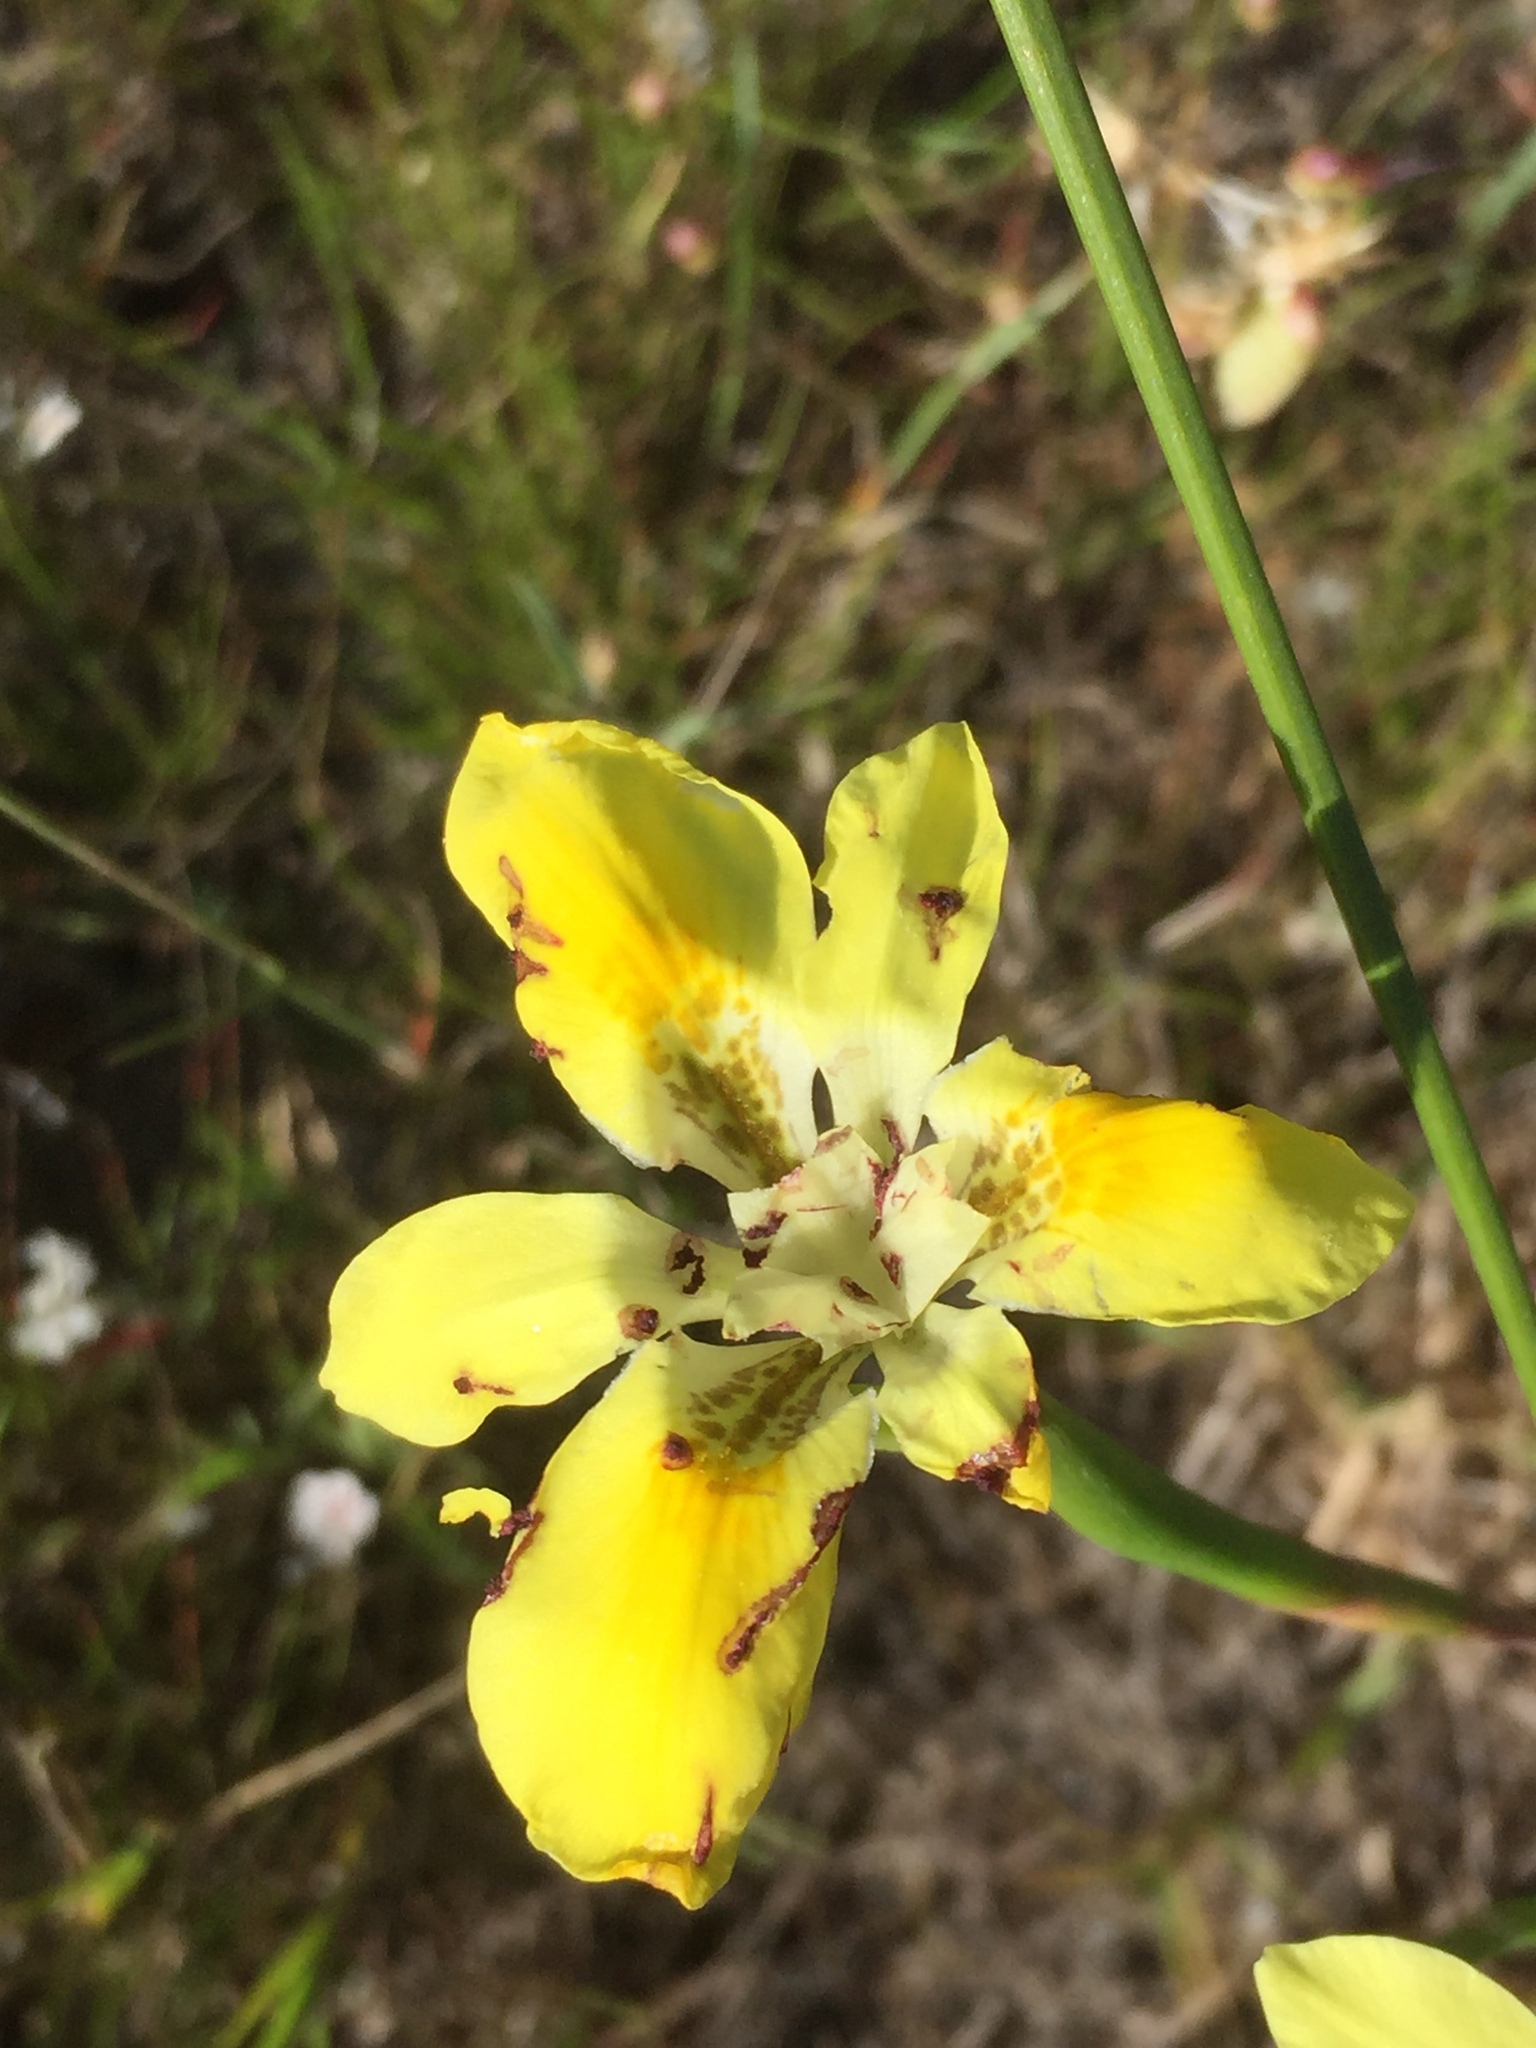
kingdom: Plantae
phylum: Tracheophyta
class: Liliopsida
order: Asparagales
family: Iridaceae
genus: Moraea
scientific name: Moraea fugax
